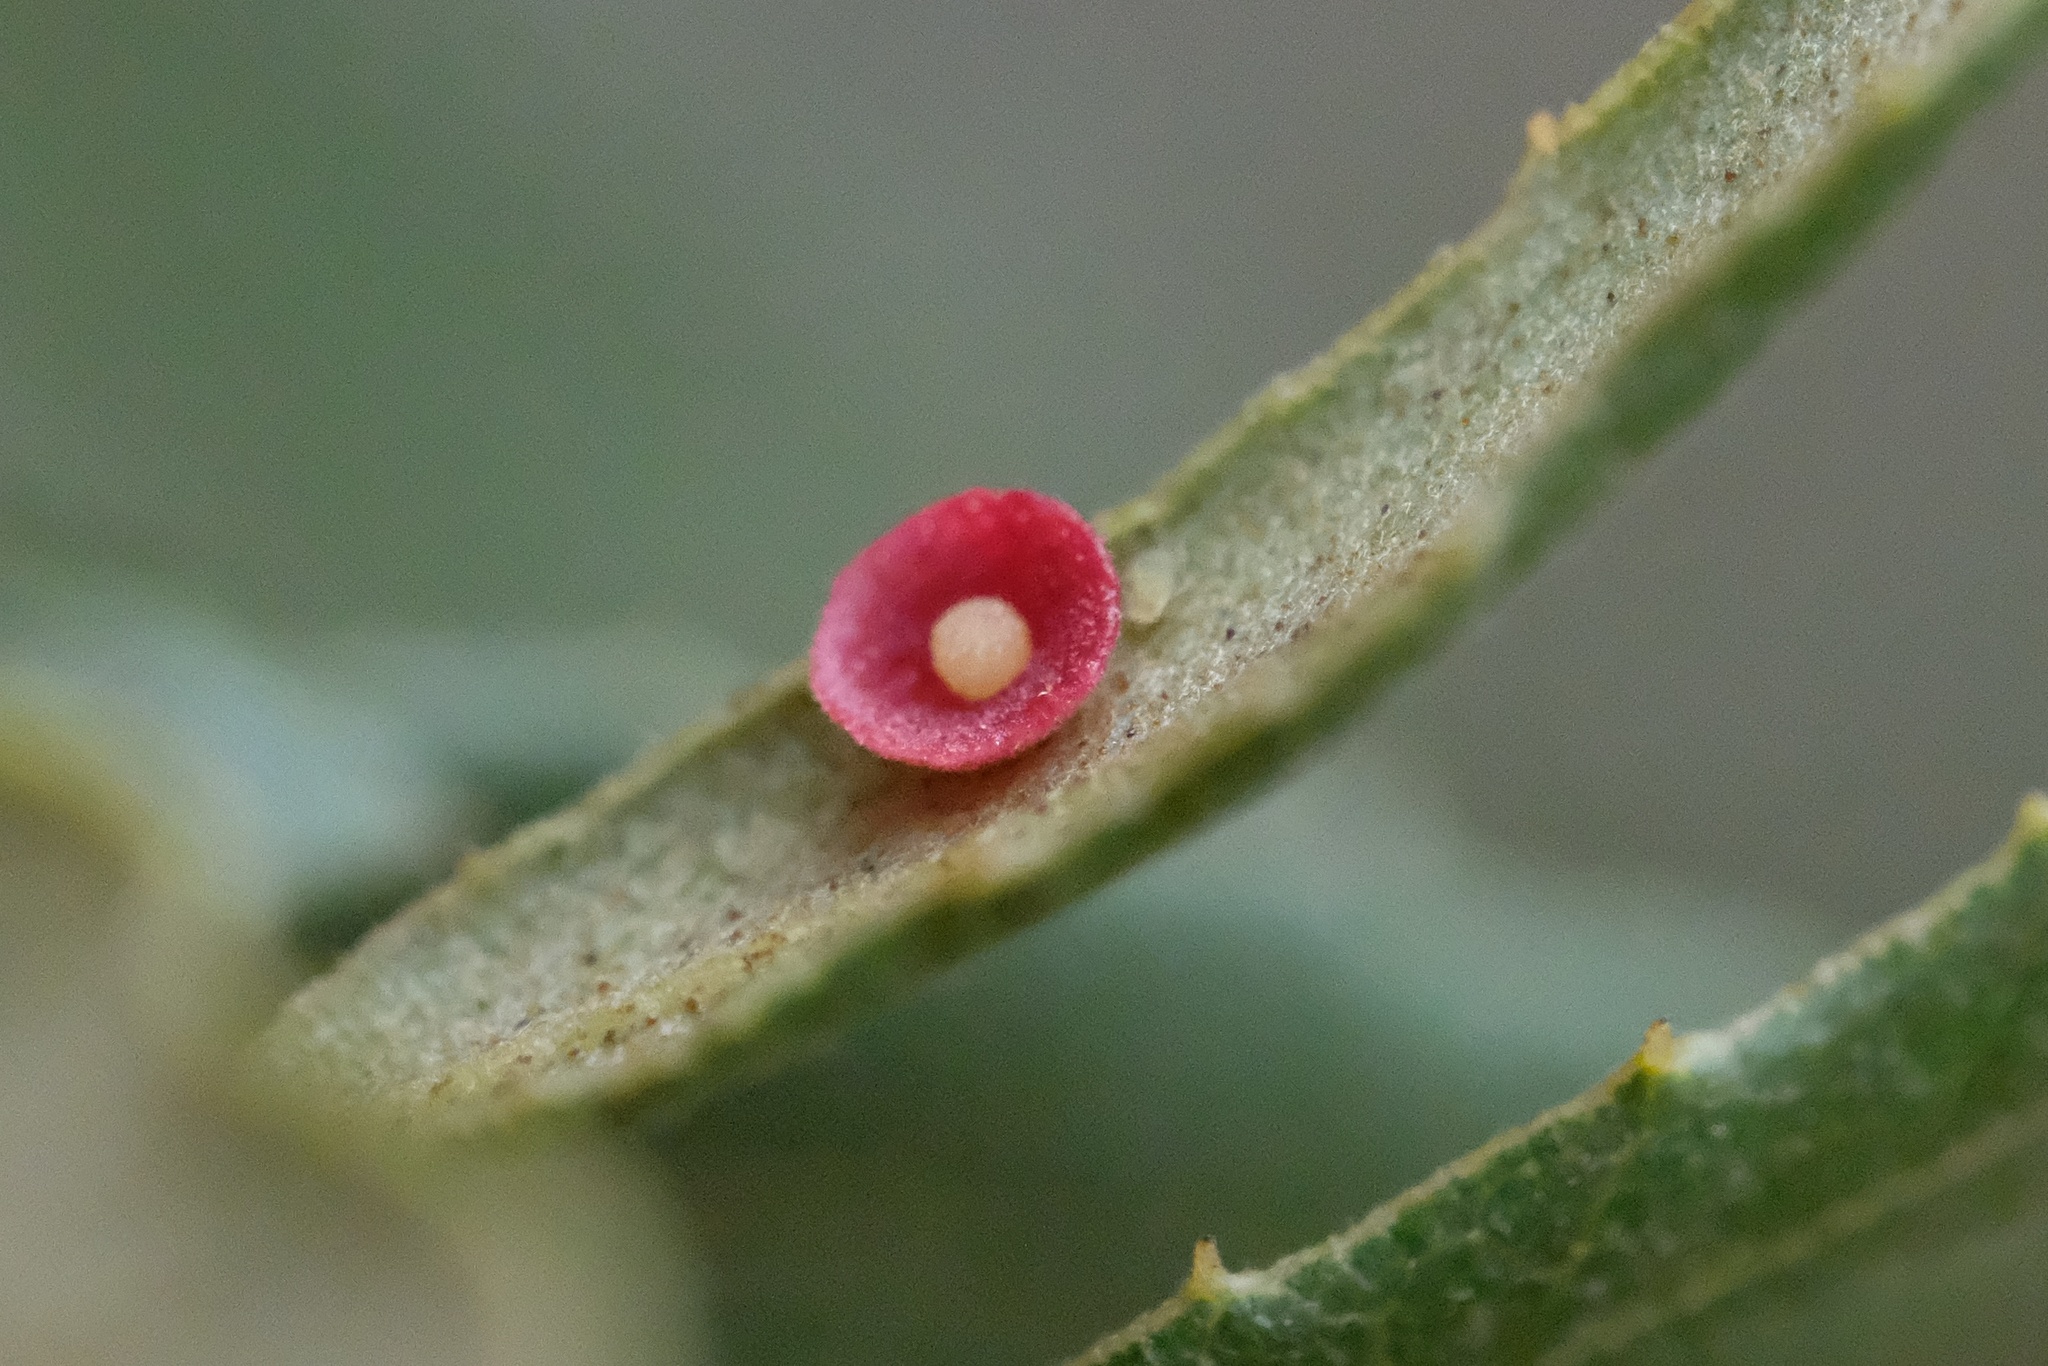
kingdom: Animalia
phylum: Arthropoda
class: Insecta
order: Hymenoptera
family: Cynipidae
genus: Andricus
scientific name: Andricus
